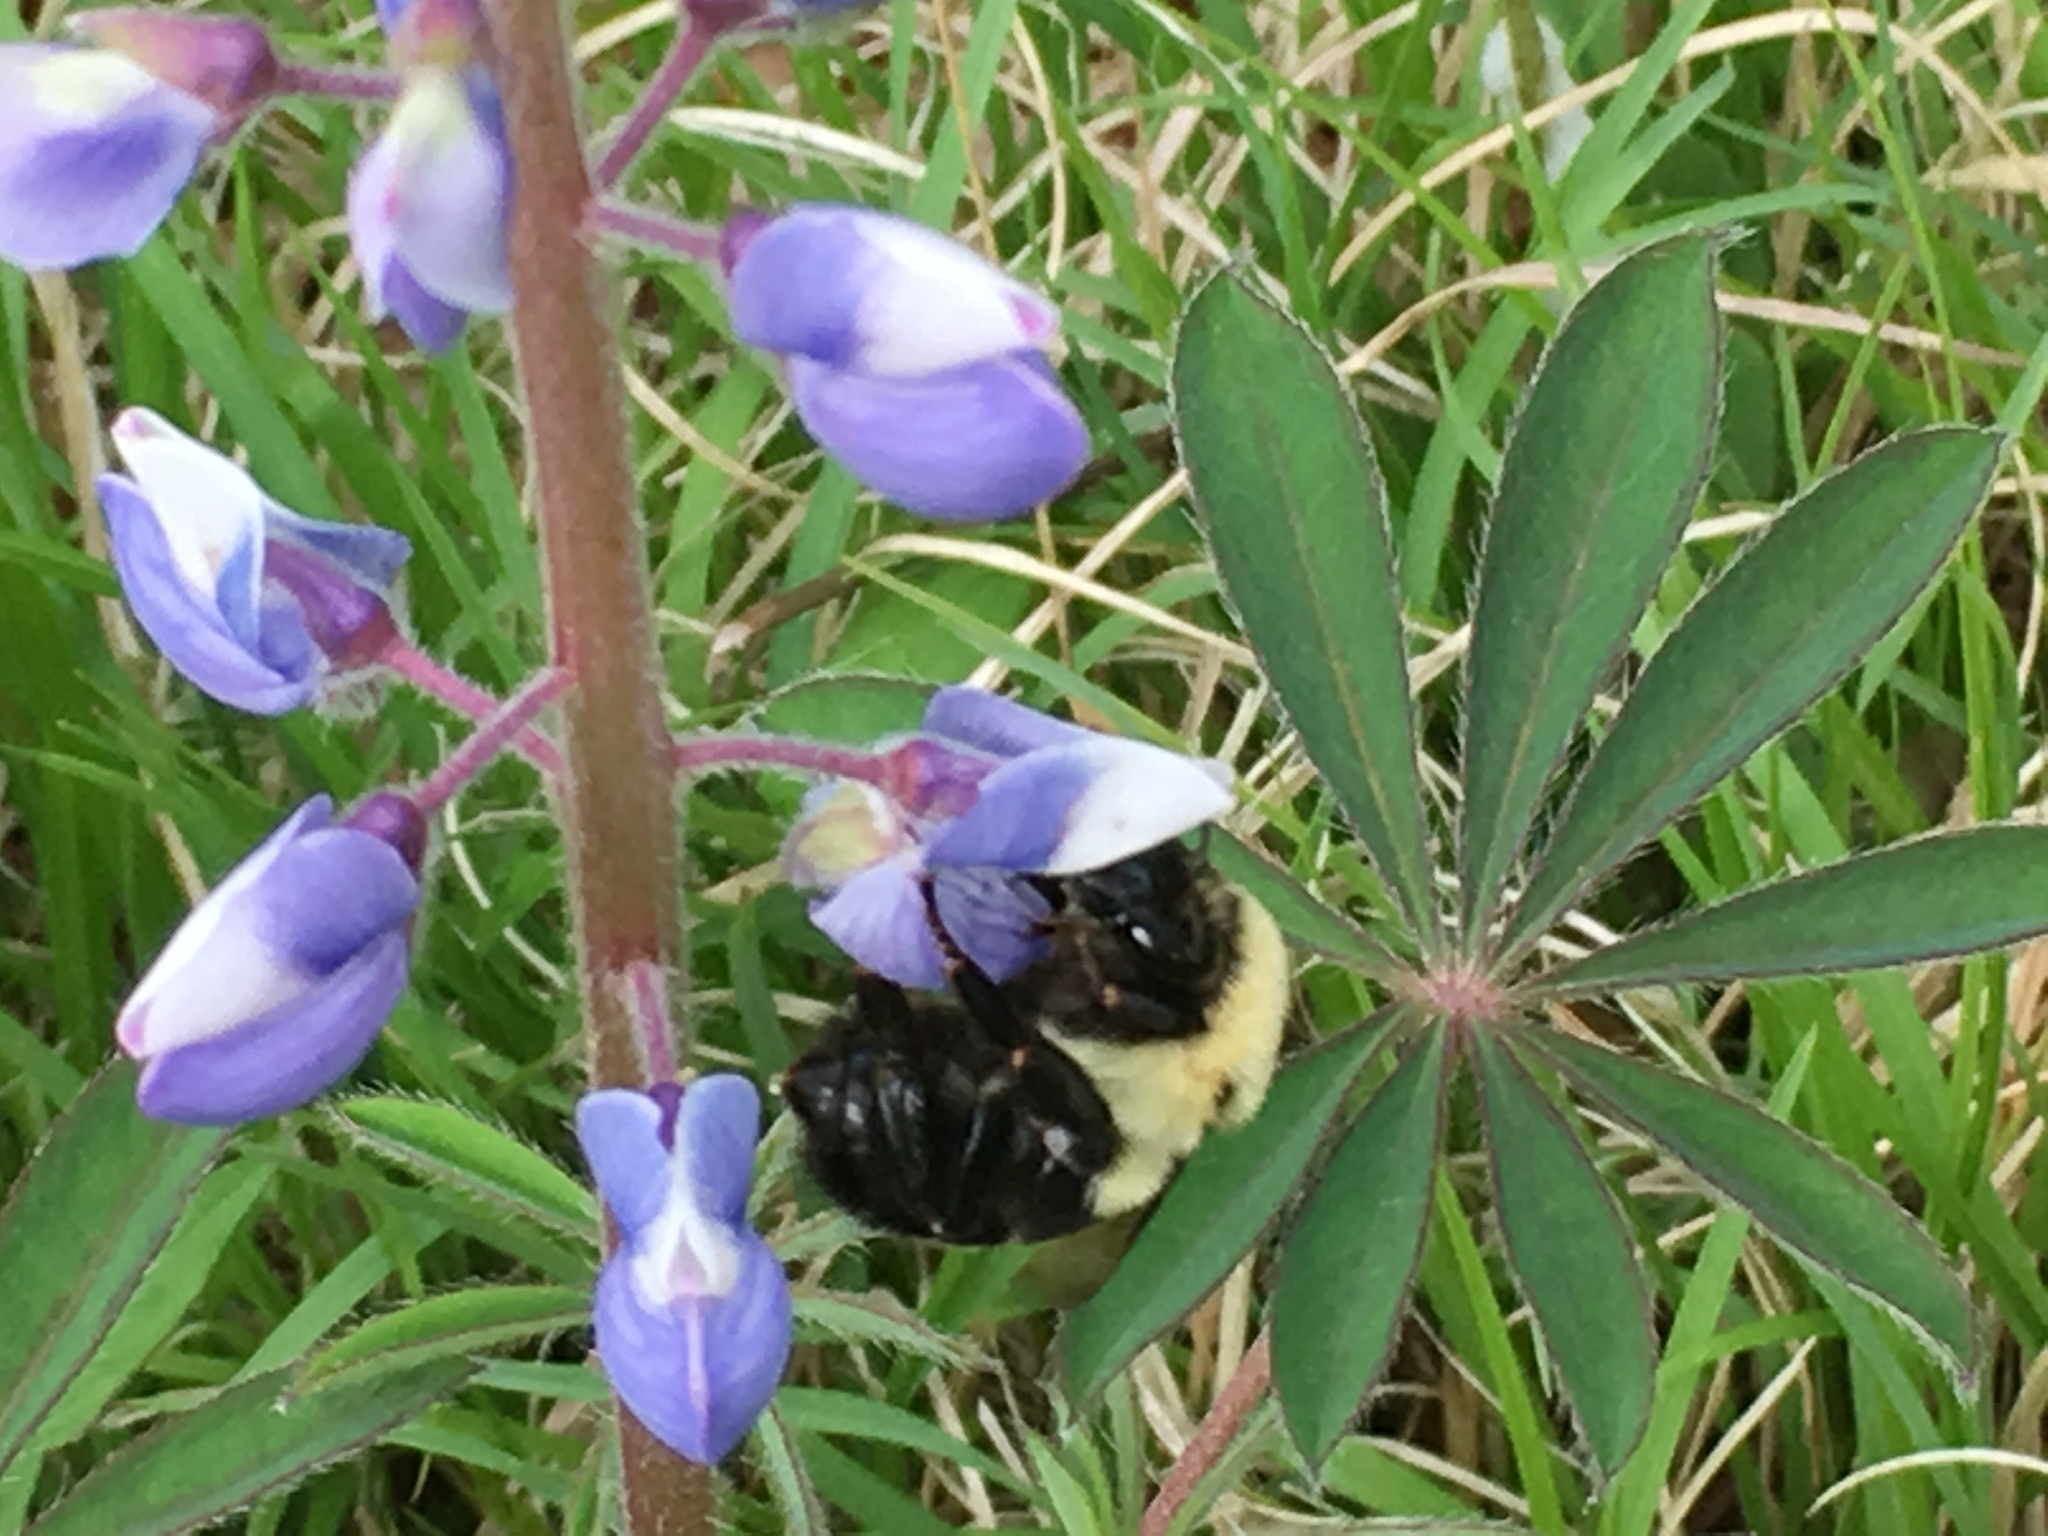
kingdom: Animalia
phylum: Arthropoda
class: Insecta
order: Hymenoptera
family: Apidae
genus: Bombus
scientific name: Bombus impatiens
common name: Common eastern bumble bee
